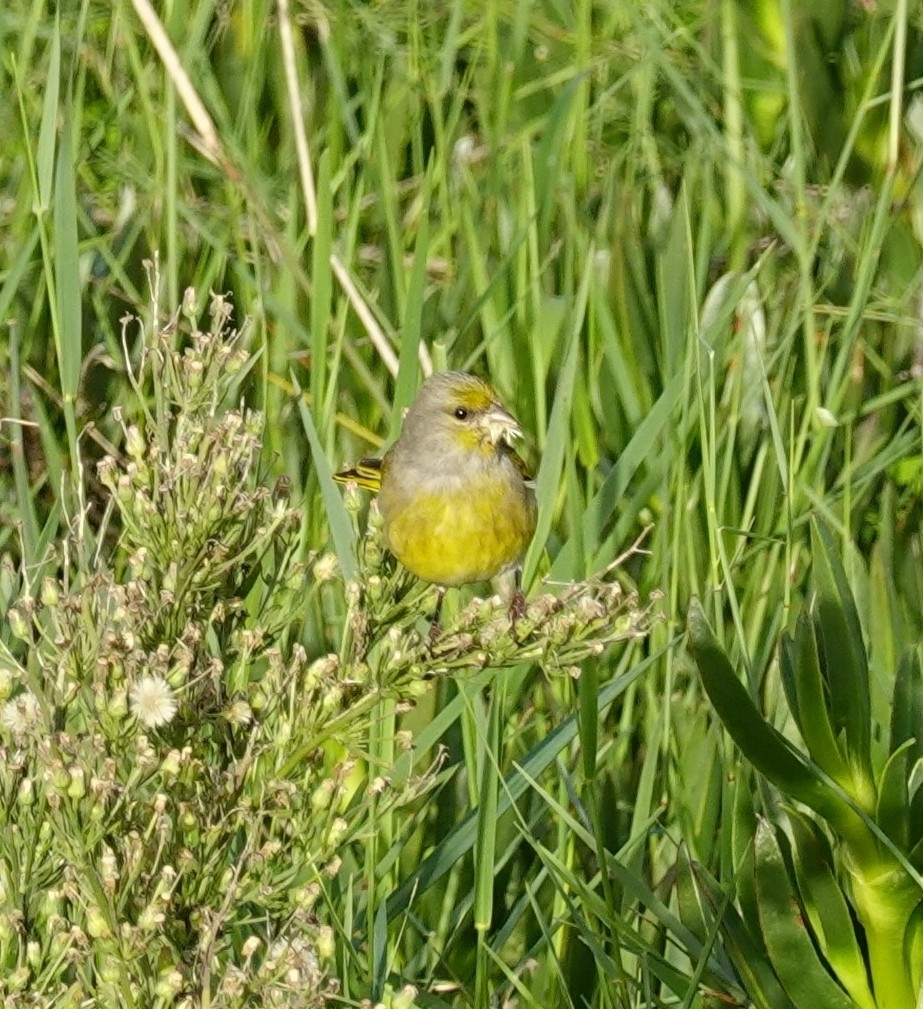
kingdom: Animalia
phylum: Chordata
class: Aves
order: Passeriformes
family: Fringillidae
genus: Serinus
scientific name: Serinus canicollis
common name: Cape canary
